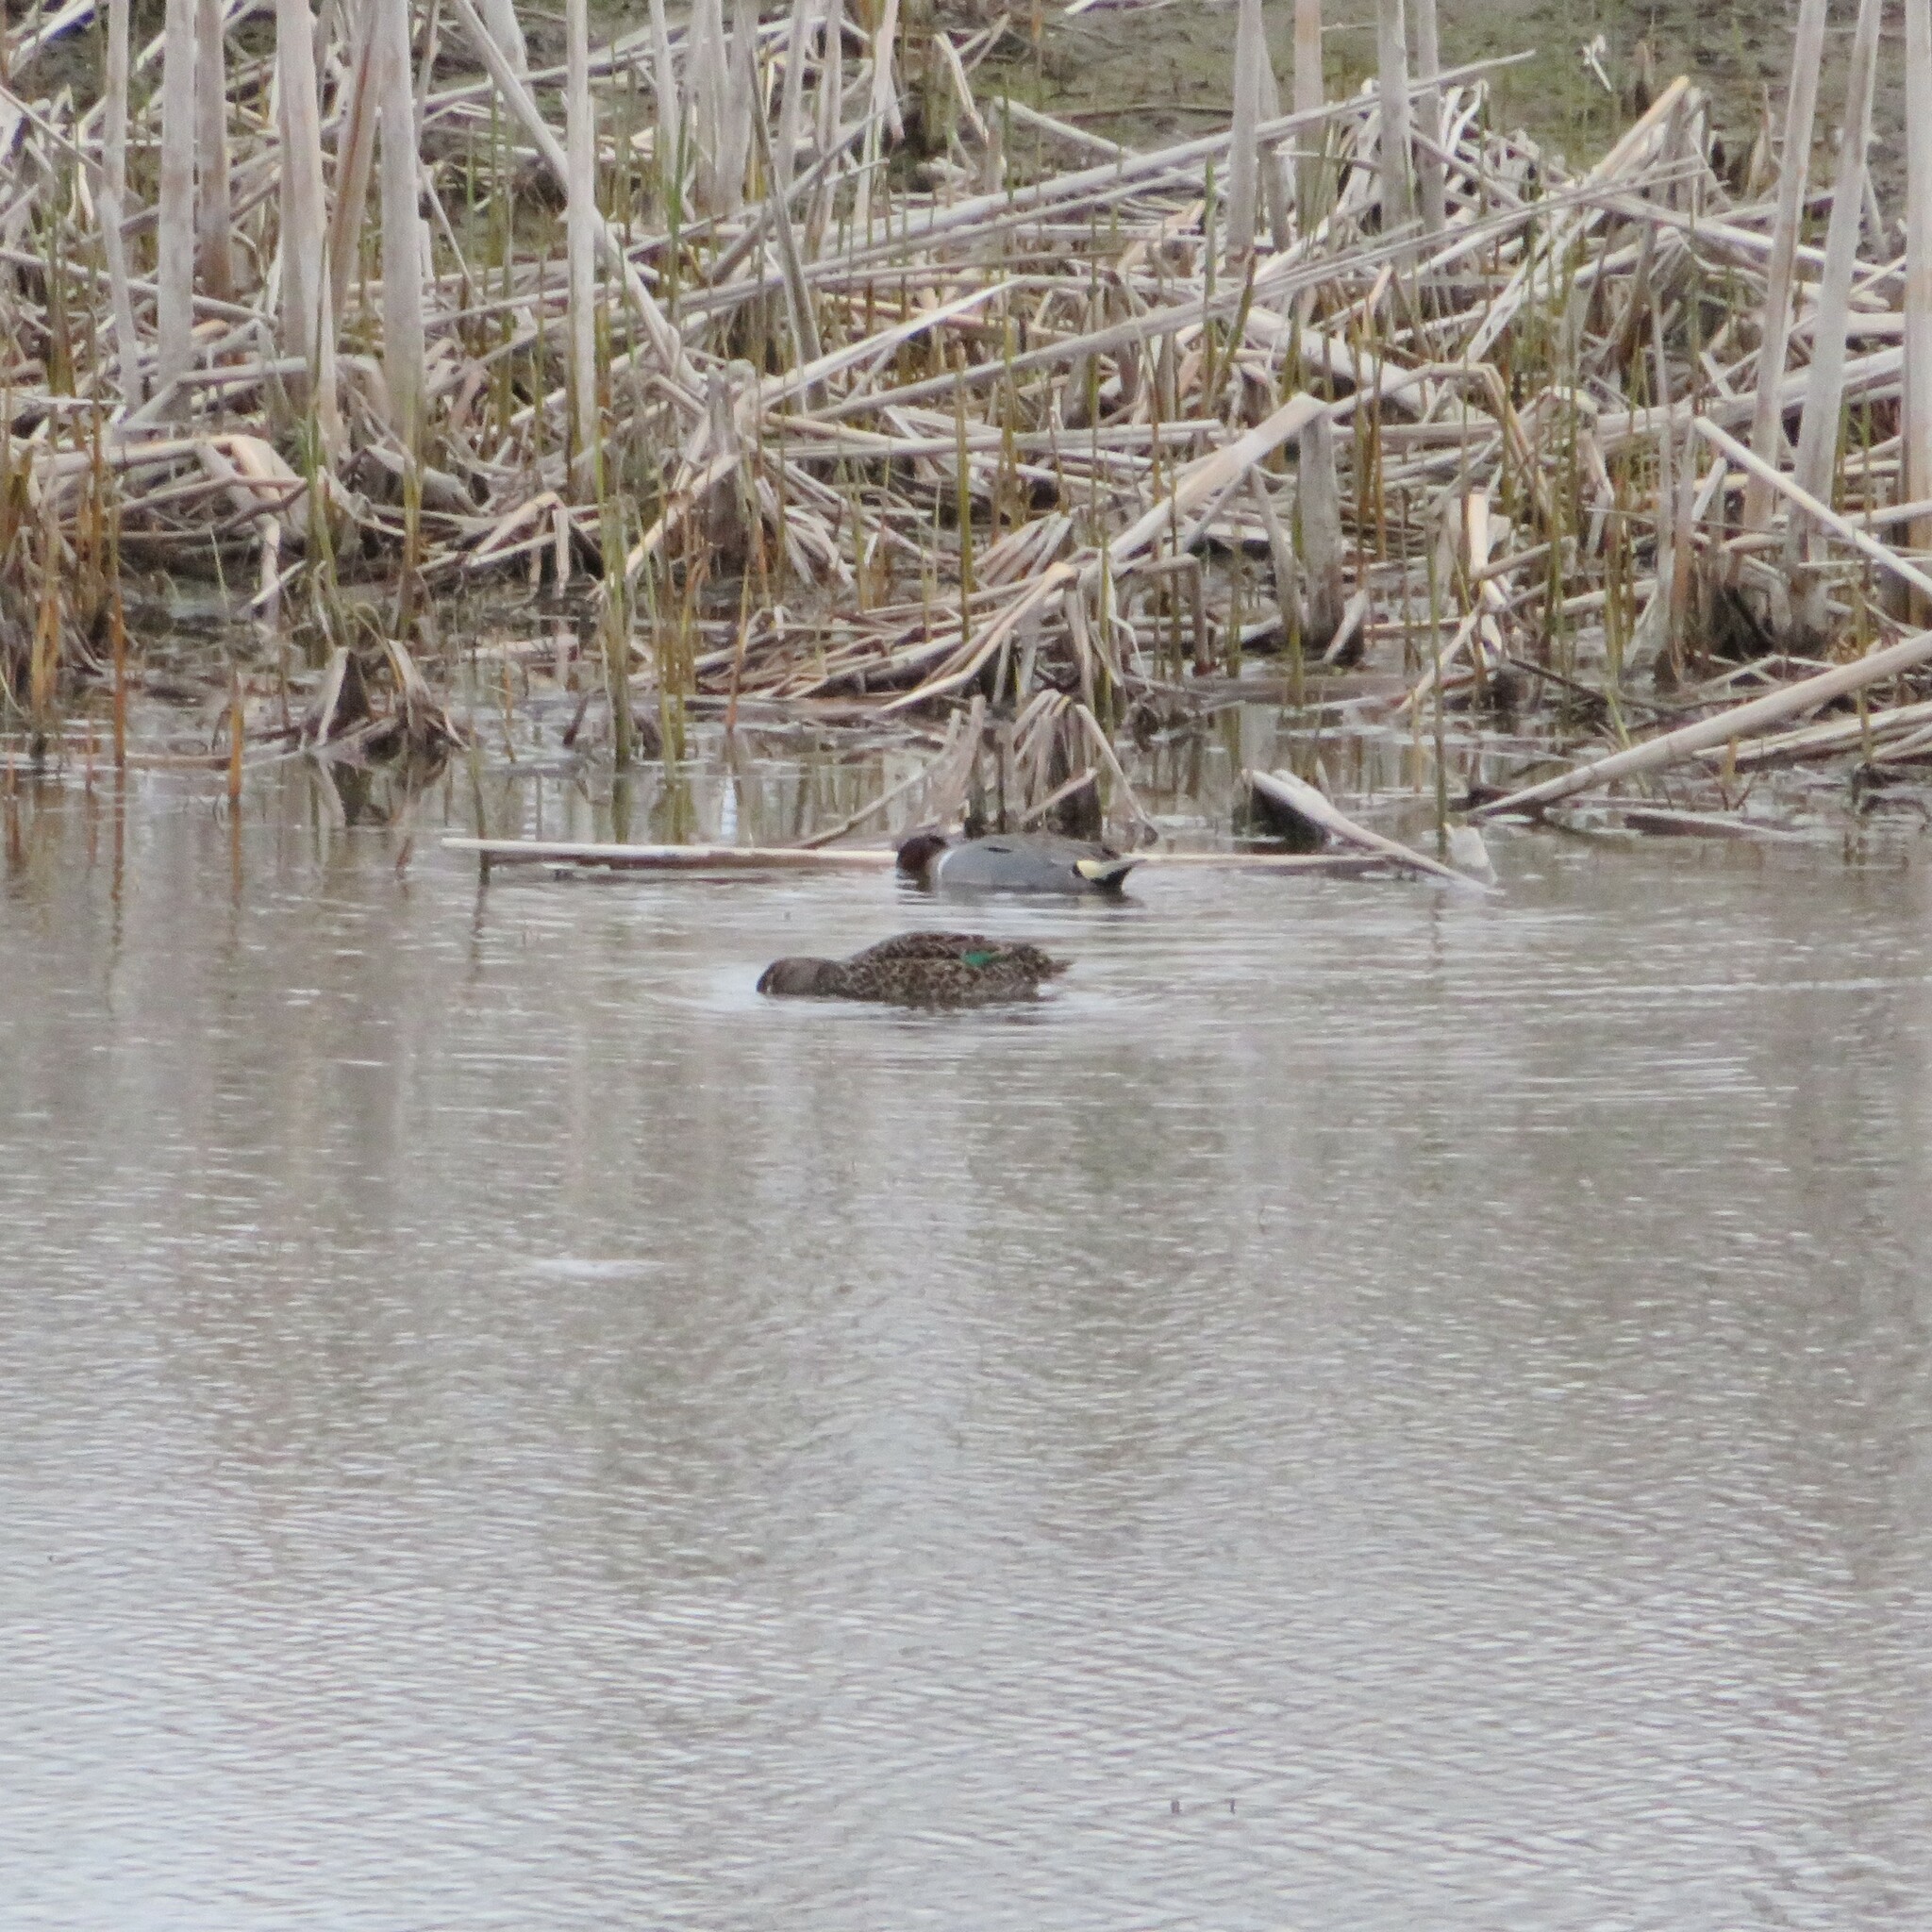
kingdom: Animalia
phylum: Chordata
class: Aves
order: Anseriformes
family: Anatidae
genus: Anas
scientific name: Anas crecca
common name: Eurasian teal
